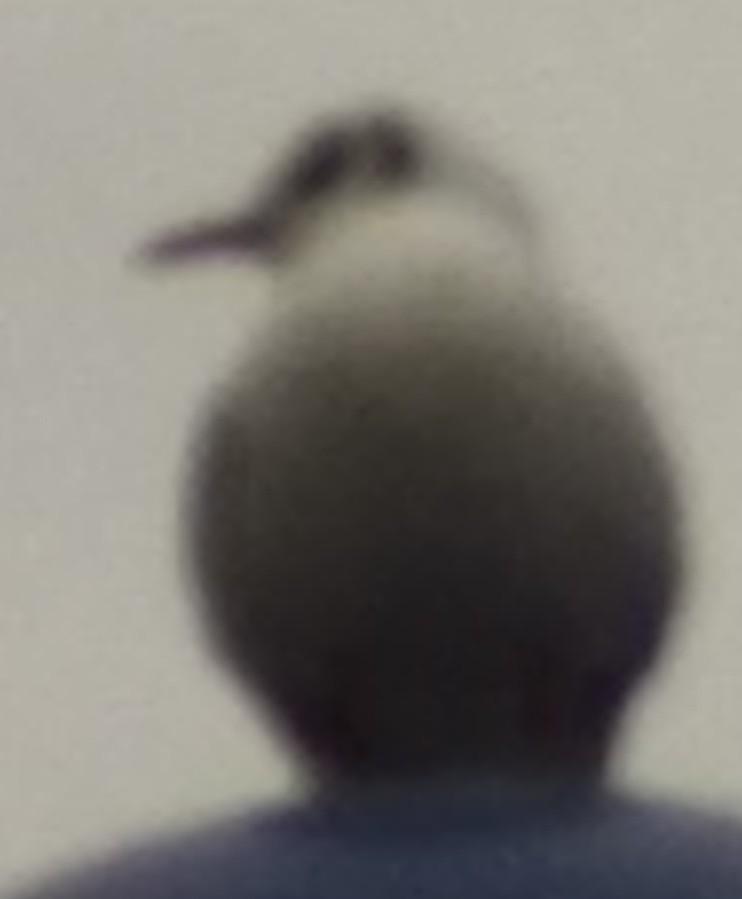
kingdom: Animalia
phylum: Chordata
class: Aves
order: Charadriiformes
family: Laridae
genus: Chroicocephalus
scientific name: Chroicocephalus ridibundus
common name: Black-headed gull
